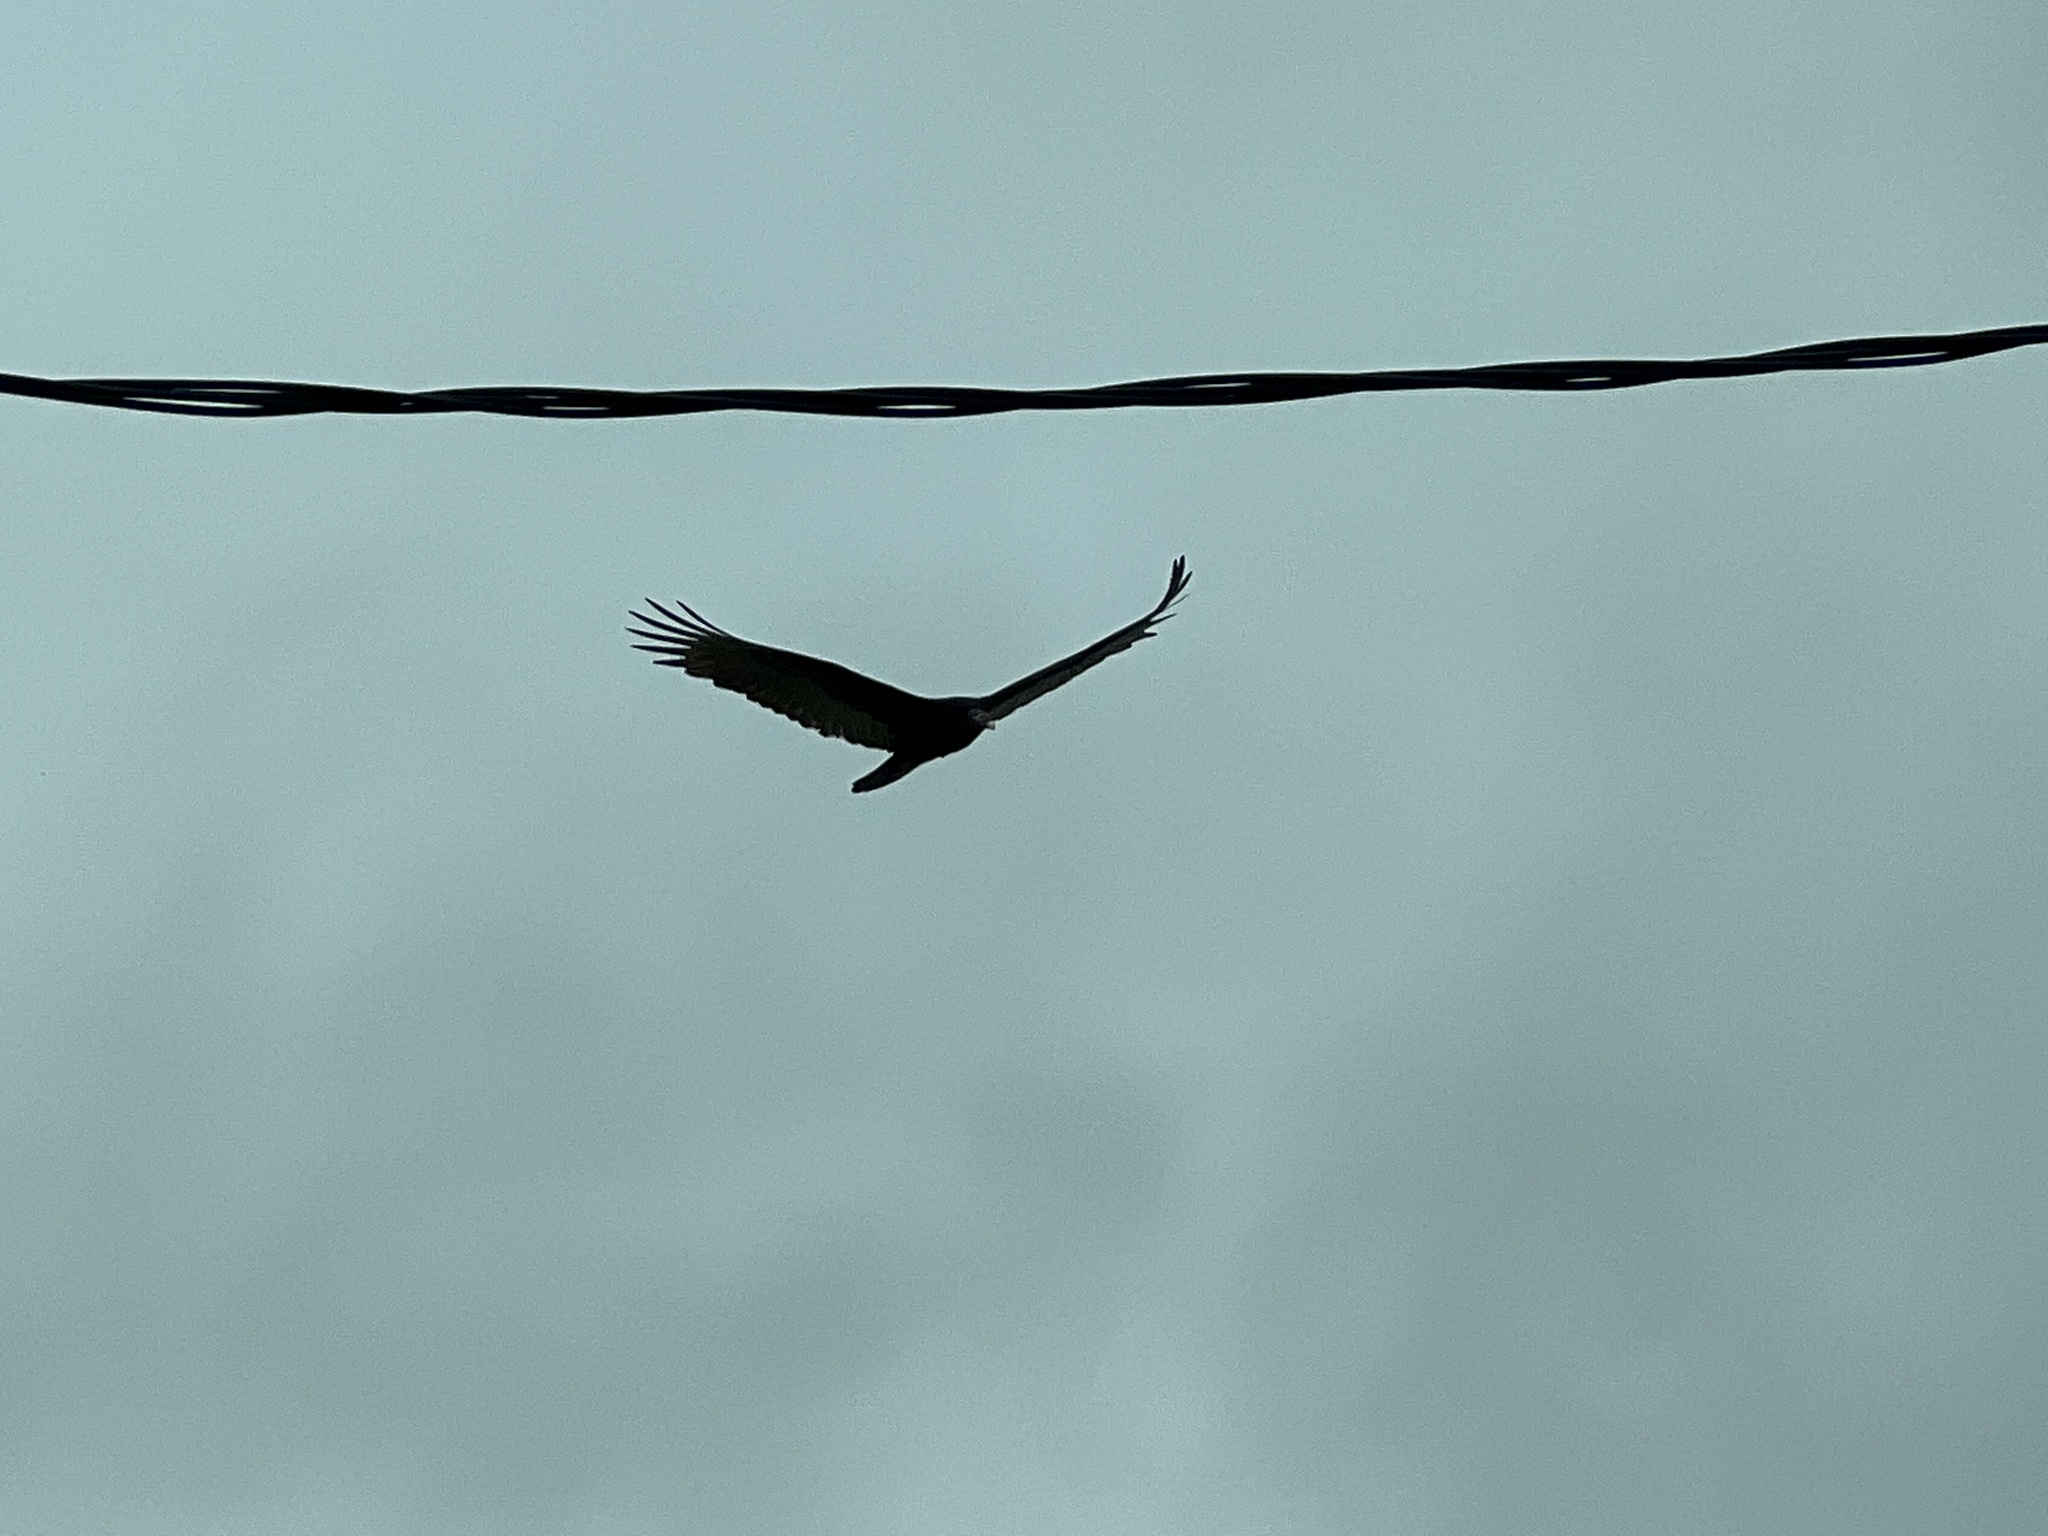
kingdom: Animalia
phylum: Chordata
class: Aves
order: Accipitriformes
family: Cathartidae
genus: Cathartes
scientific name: Cathartes aura
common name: Turkey vulture
